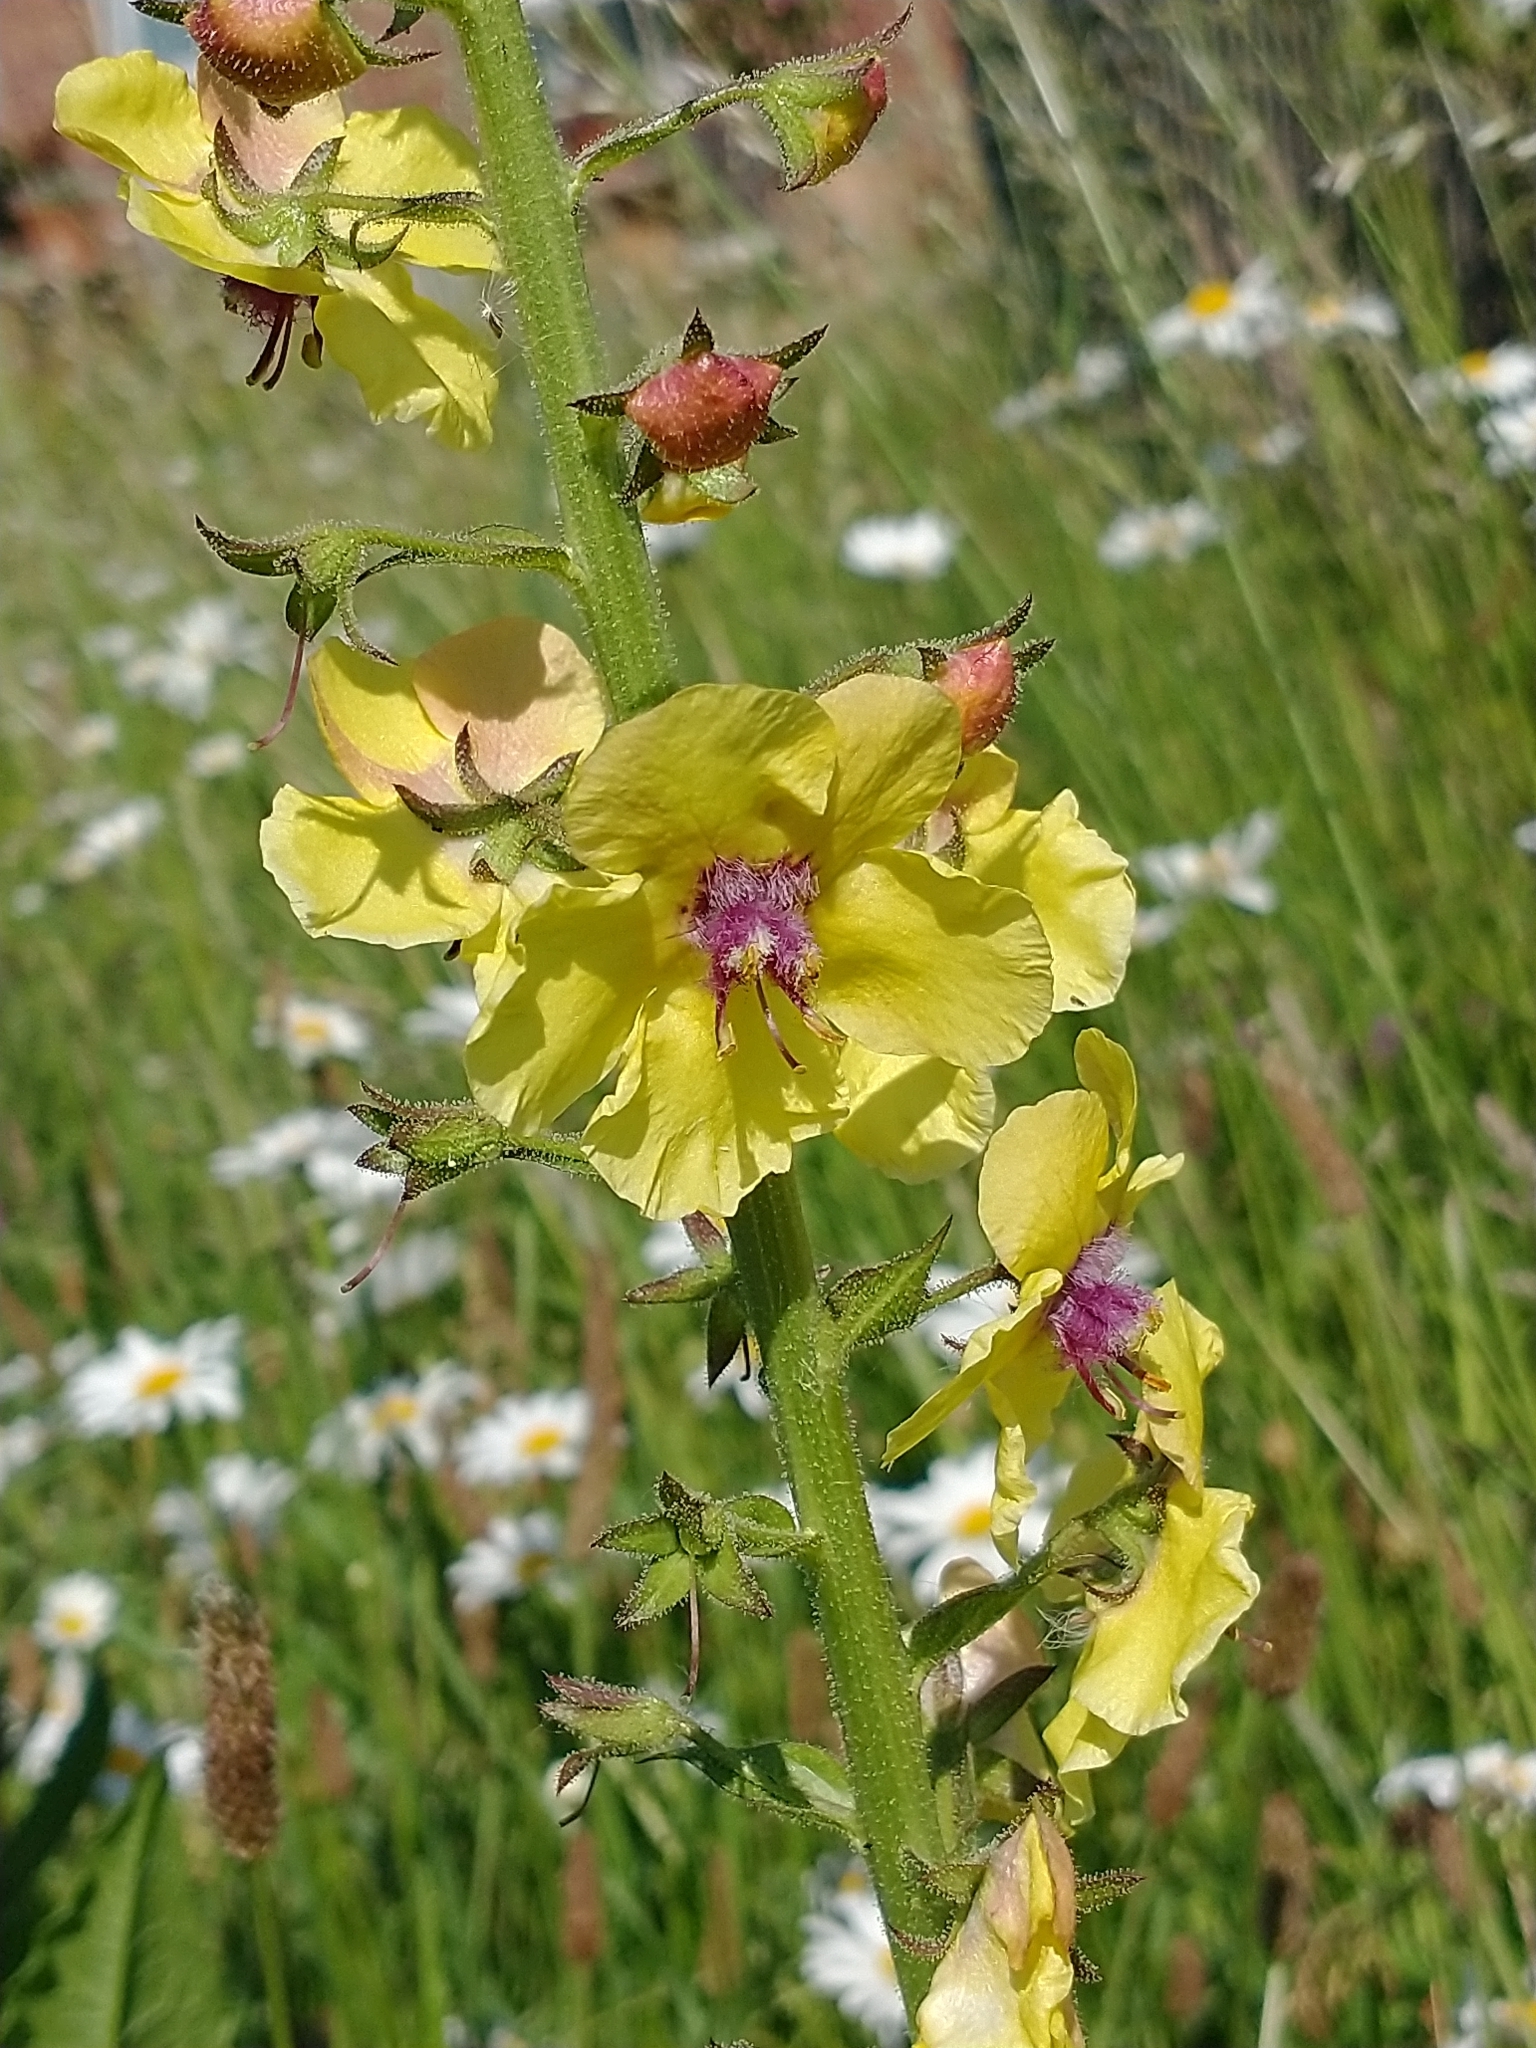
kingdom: Plantae
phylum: Tracheophyta
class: Magnoliopsida
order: Lamiales
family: Scrophulariaceae
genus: Verbascum
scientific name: Verbascum blattaria
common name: Moth mullein
